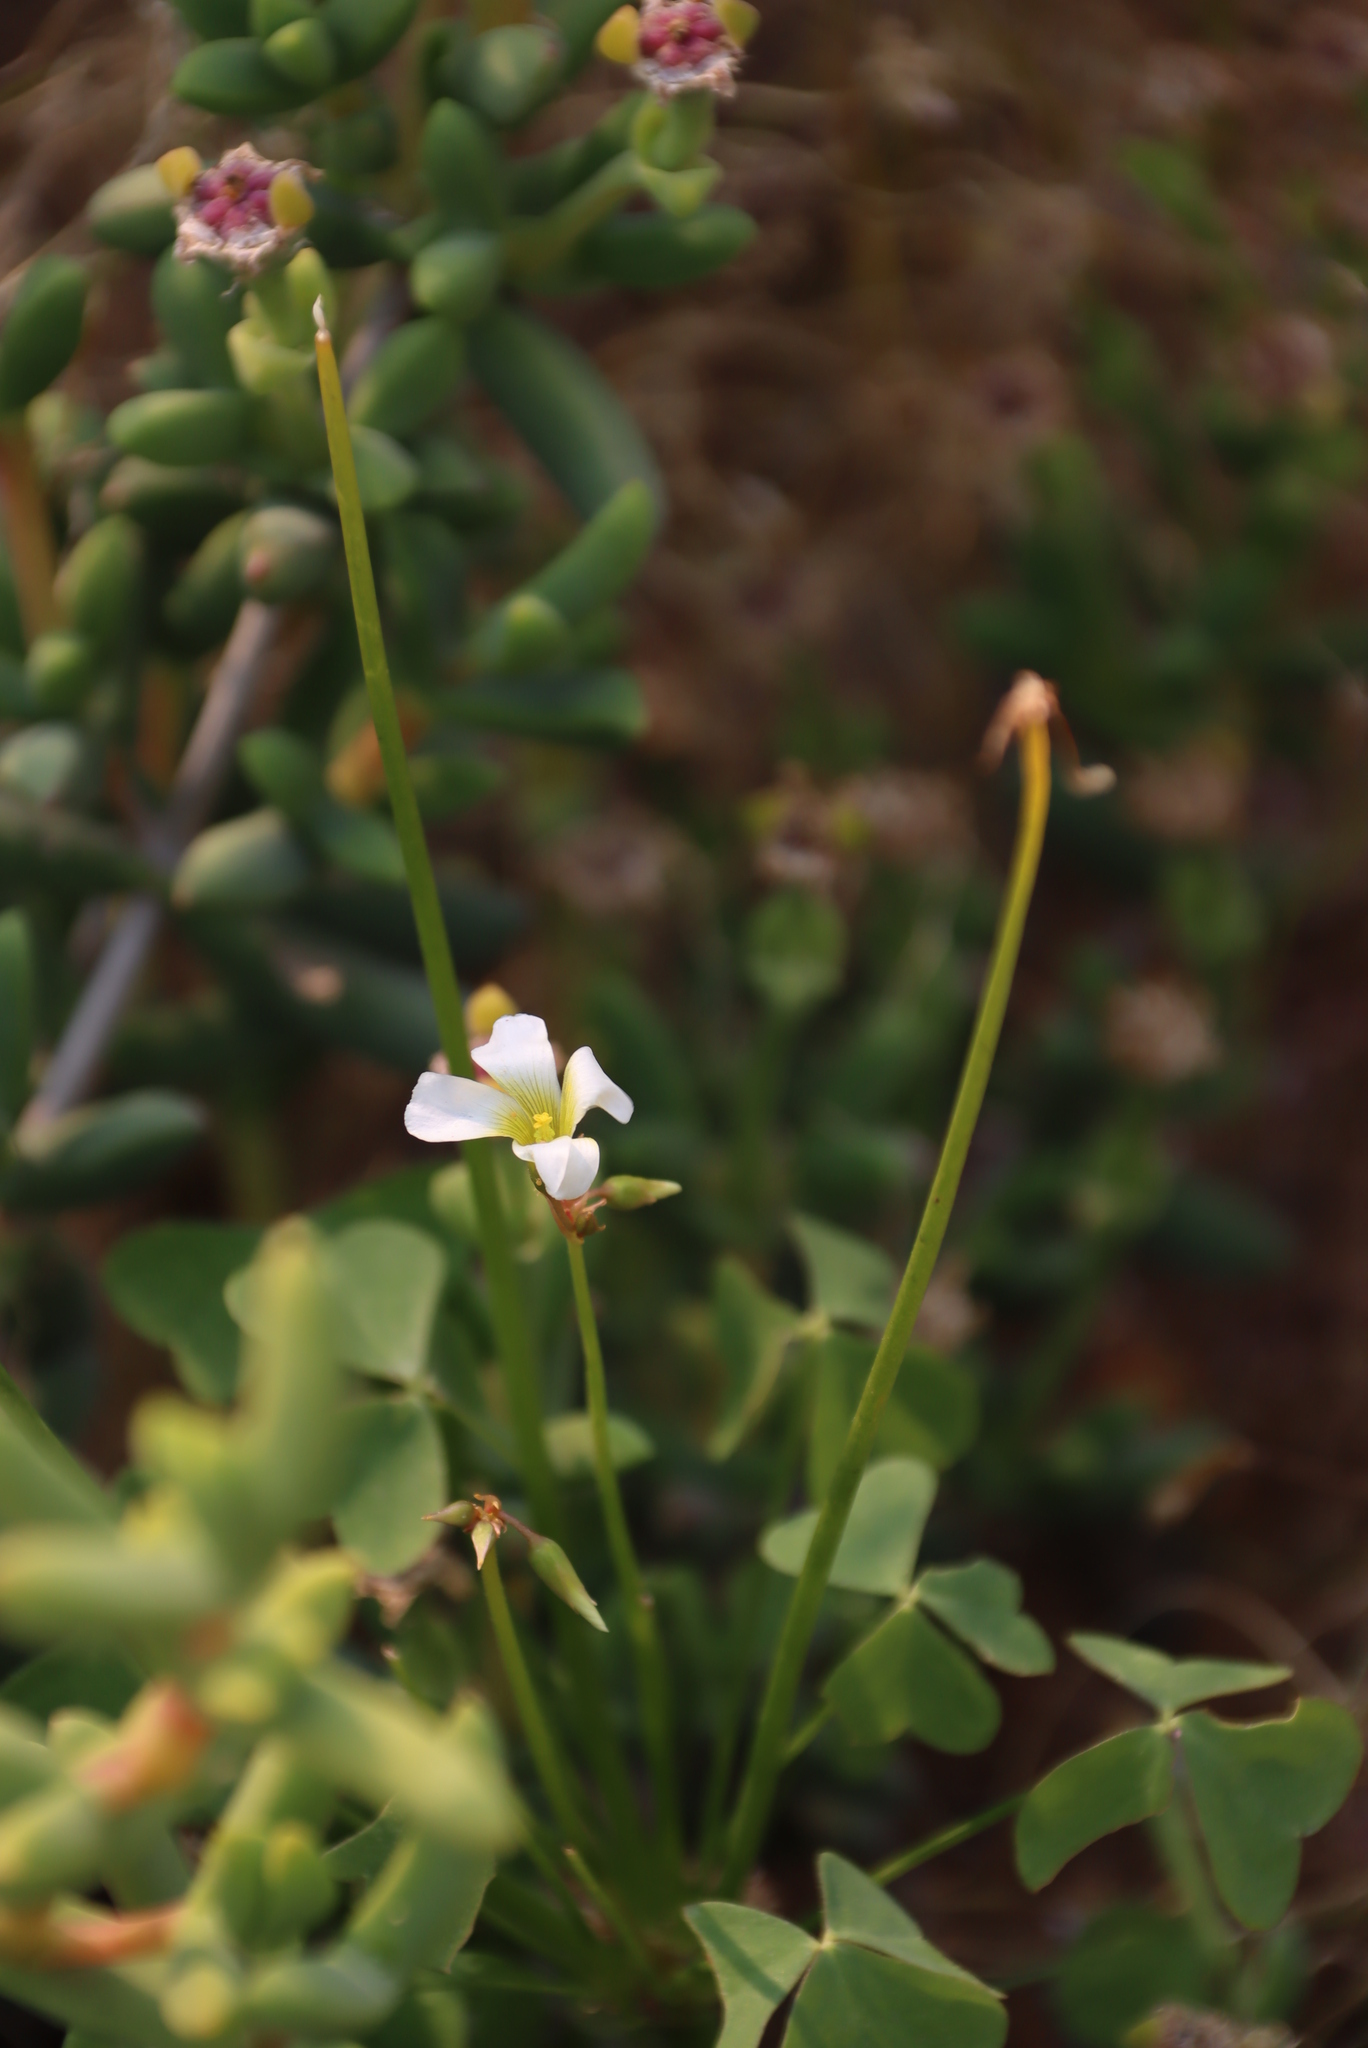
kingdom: Plantae
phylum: Tracheophyta
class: Magnoliopsida
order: Oxalidales
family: Oxalidaceae
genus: Oxalis
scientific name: Oxalis nivea
